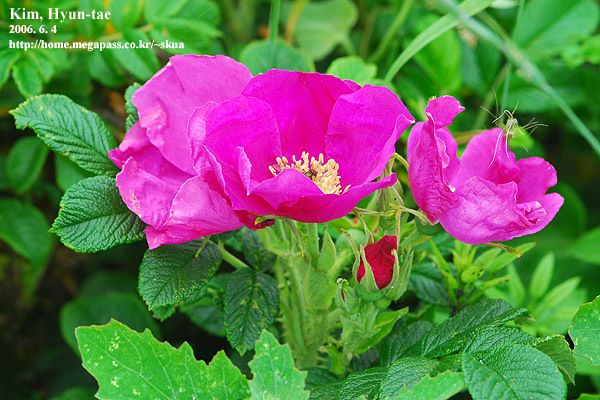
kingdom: Plantae
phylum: Tracheophyta
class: Magnoliopsida
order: Rosales
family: Rosaceae
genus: Rosa
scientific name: Rosa rugosa
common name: Japanese rose
